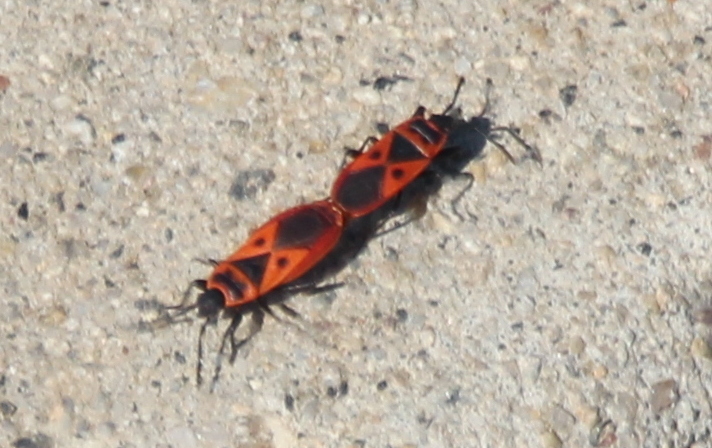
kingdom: Animalia
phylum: Arthropoda
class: Insecta
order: Hemiptera
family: Pyrrhocoridae
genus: Scantius
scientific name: Scantius aegyptius
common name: Red bug
